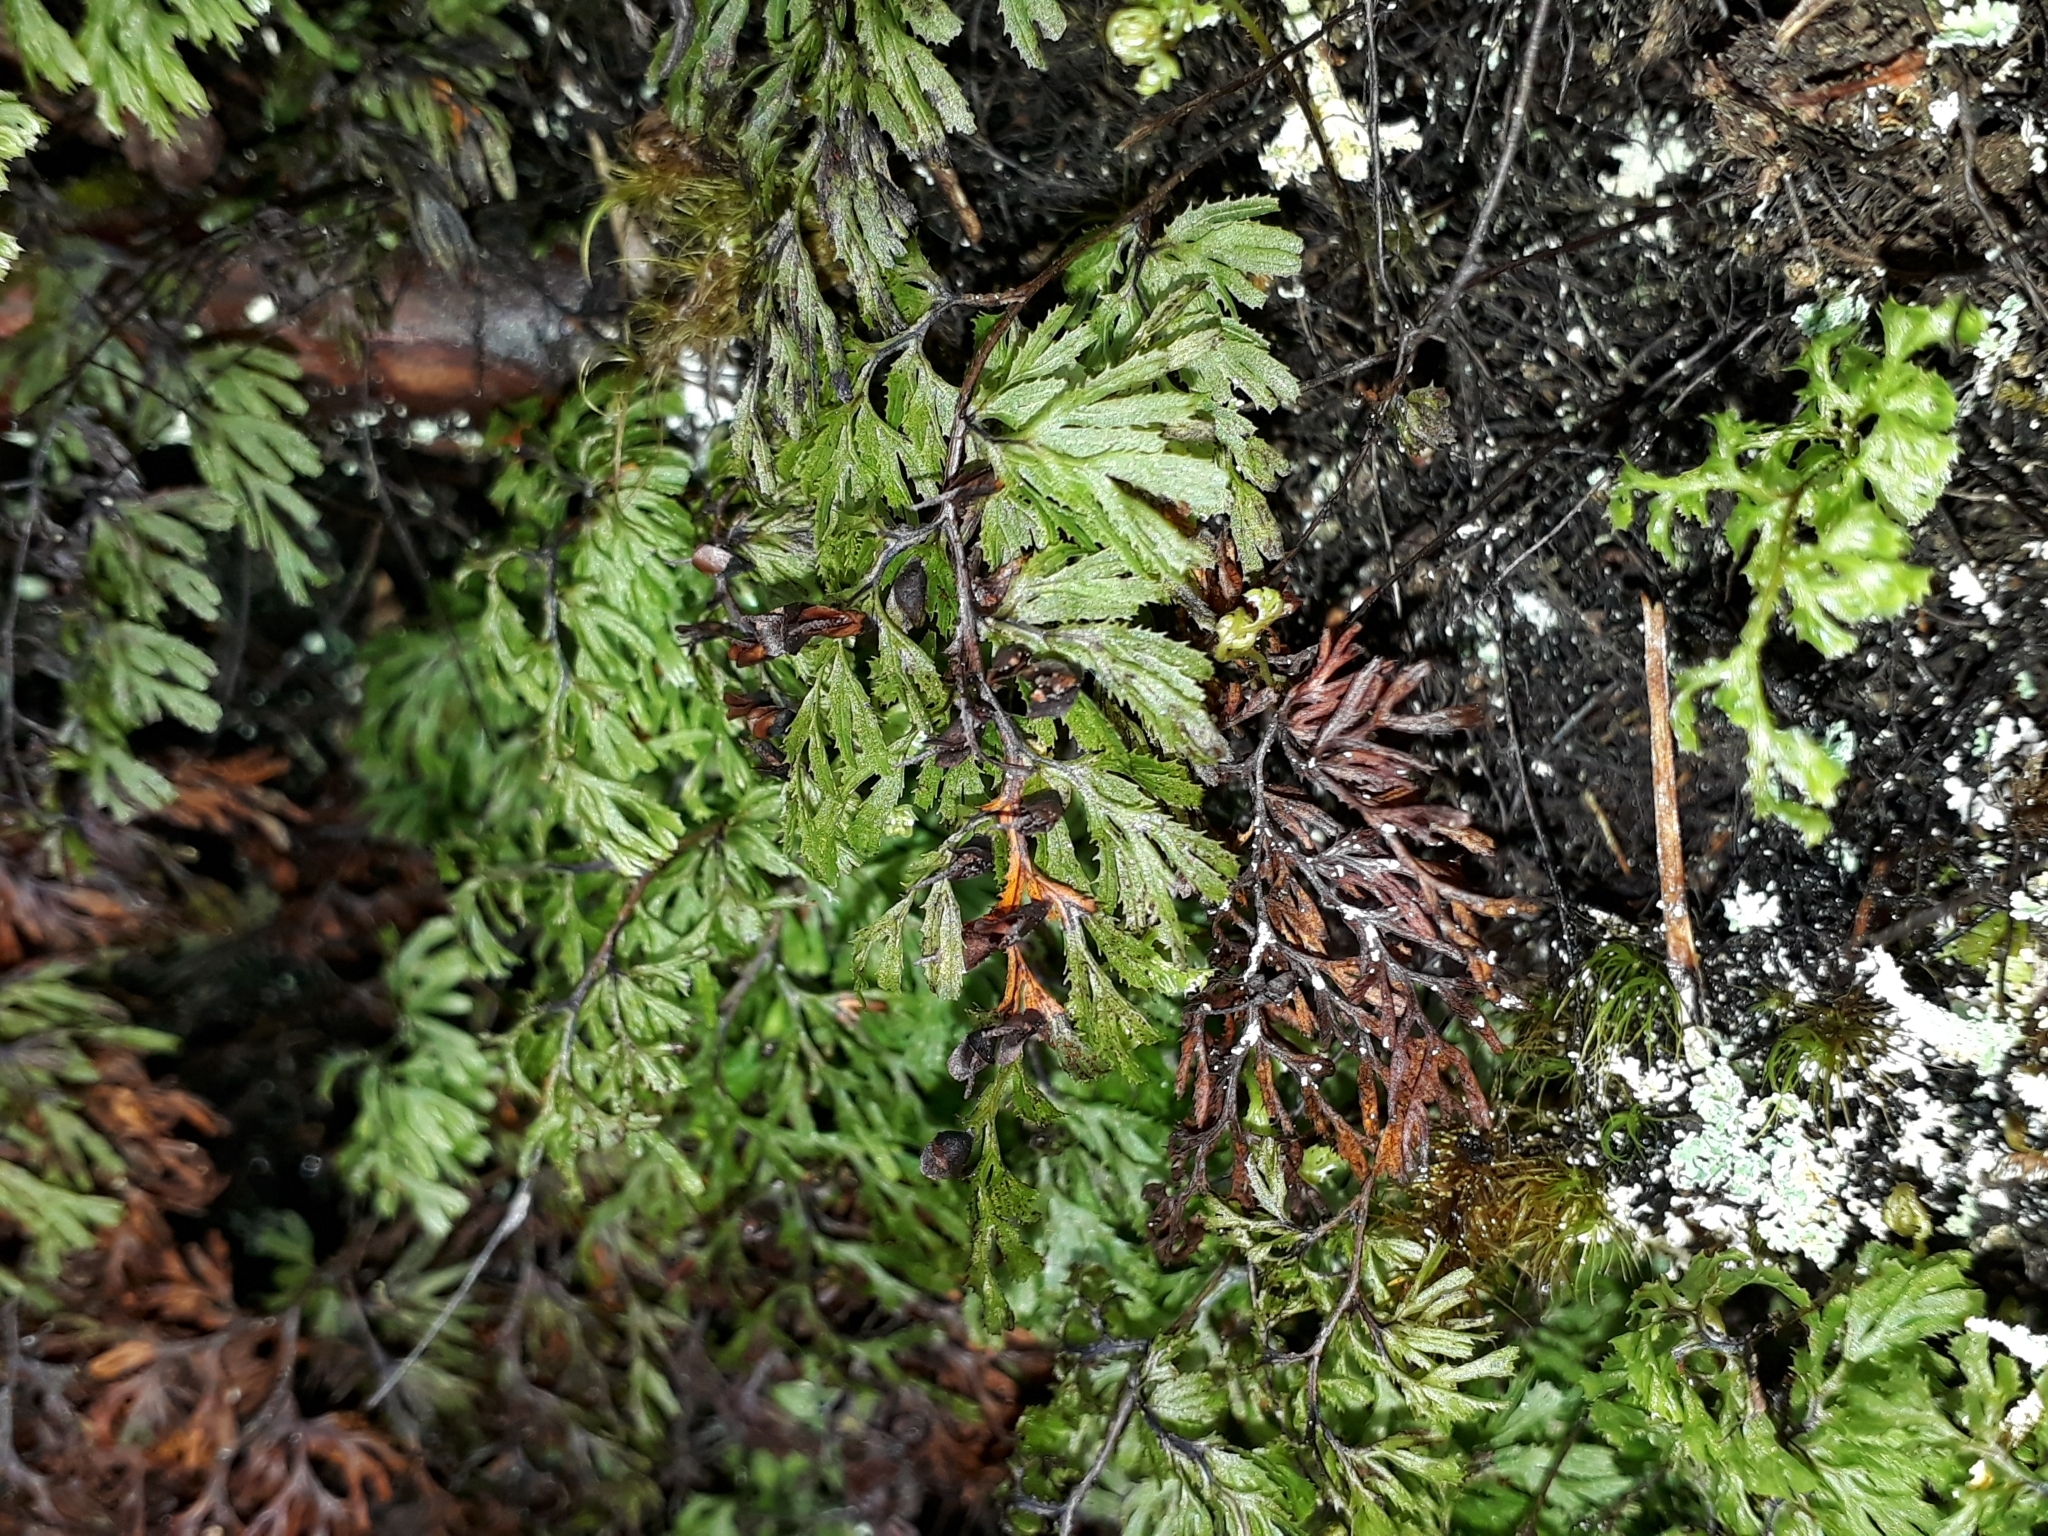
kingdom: Plantae
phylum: Tracheophyta
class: Polypodiopsida
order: Hymenophyllales
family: Hymenophyllaceae
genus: Hymenophyllum
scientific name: Hymenophyllum multifidum
